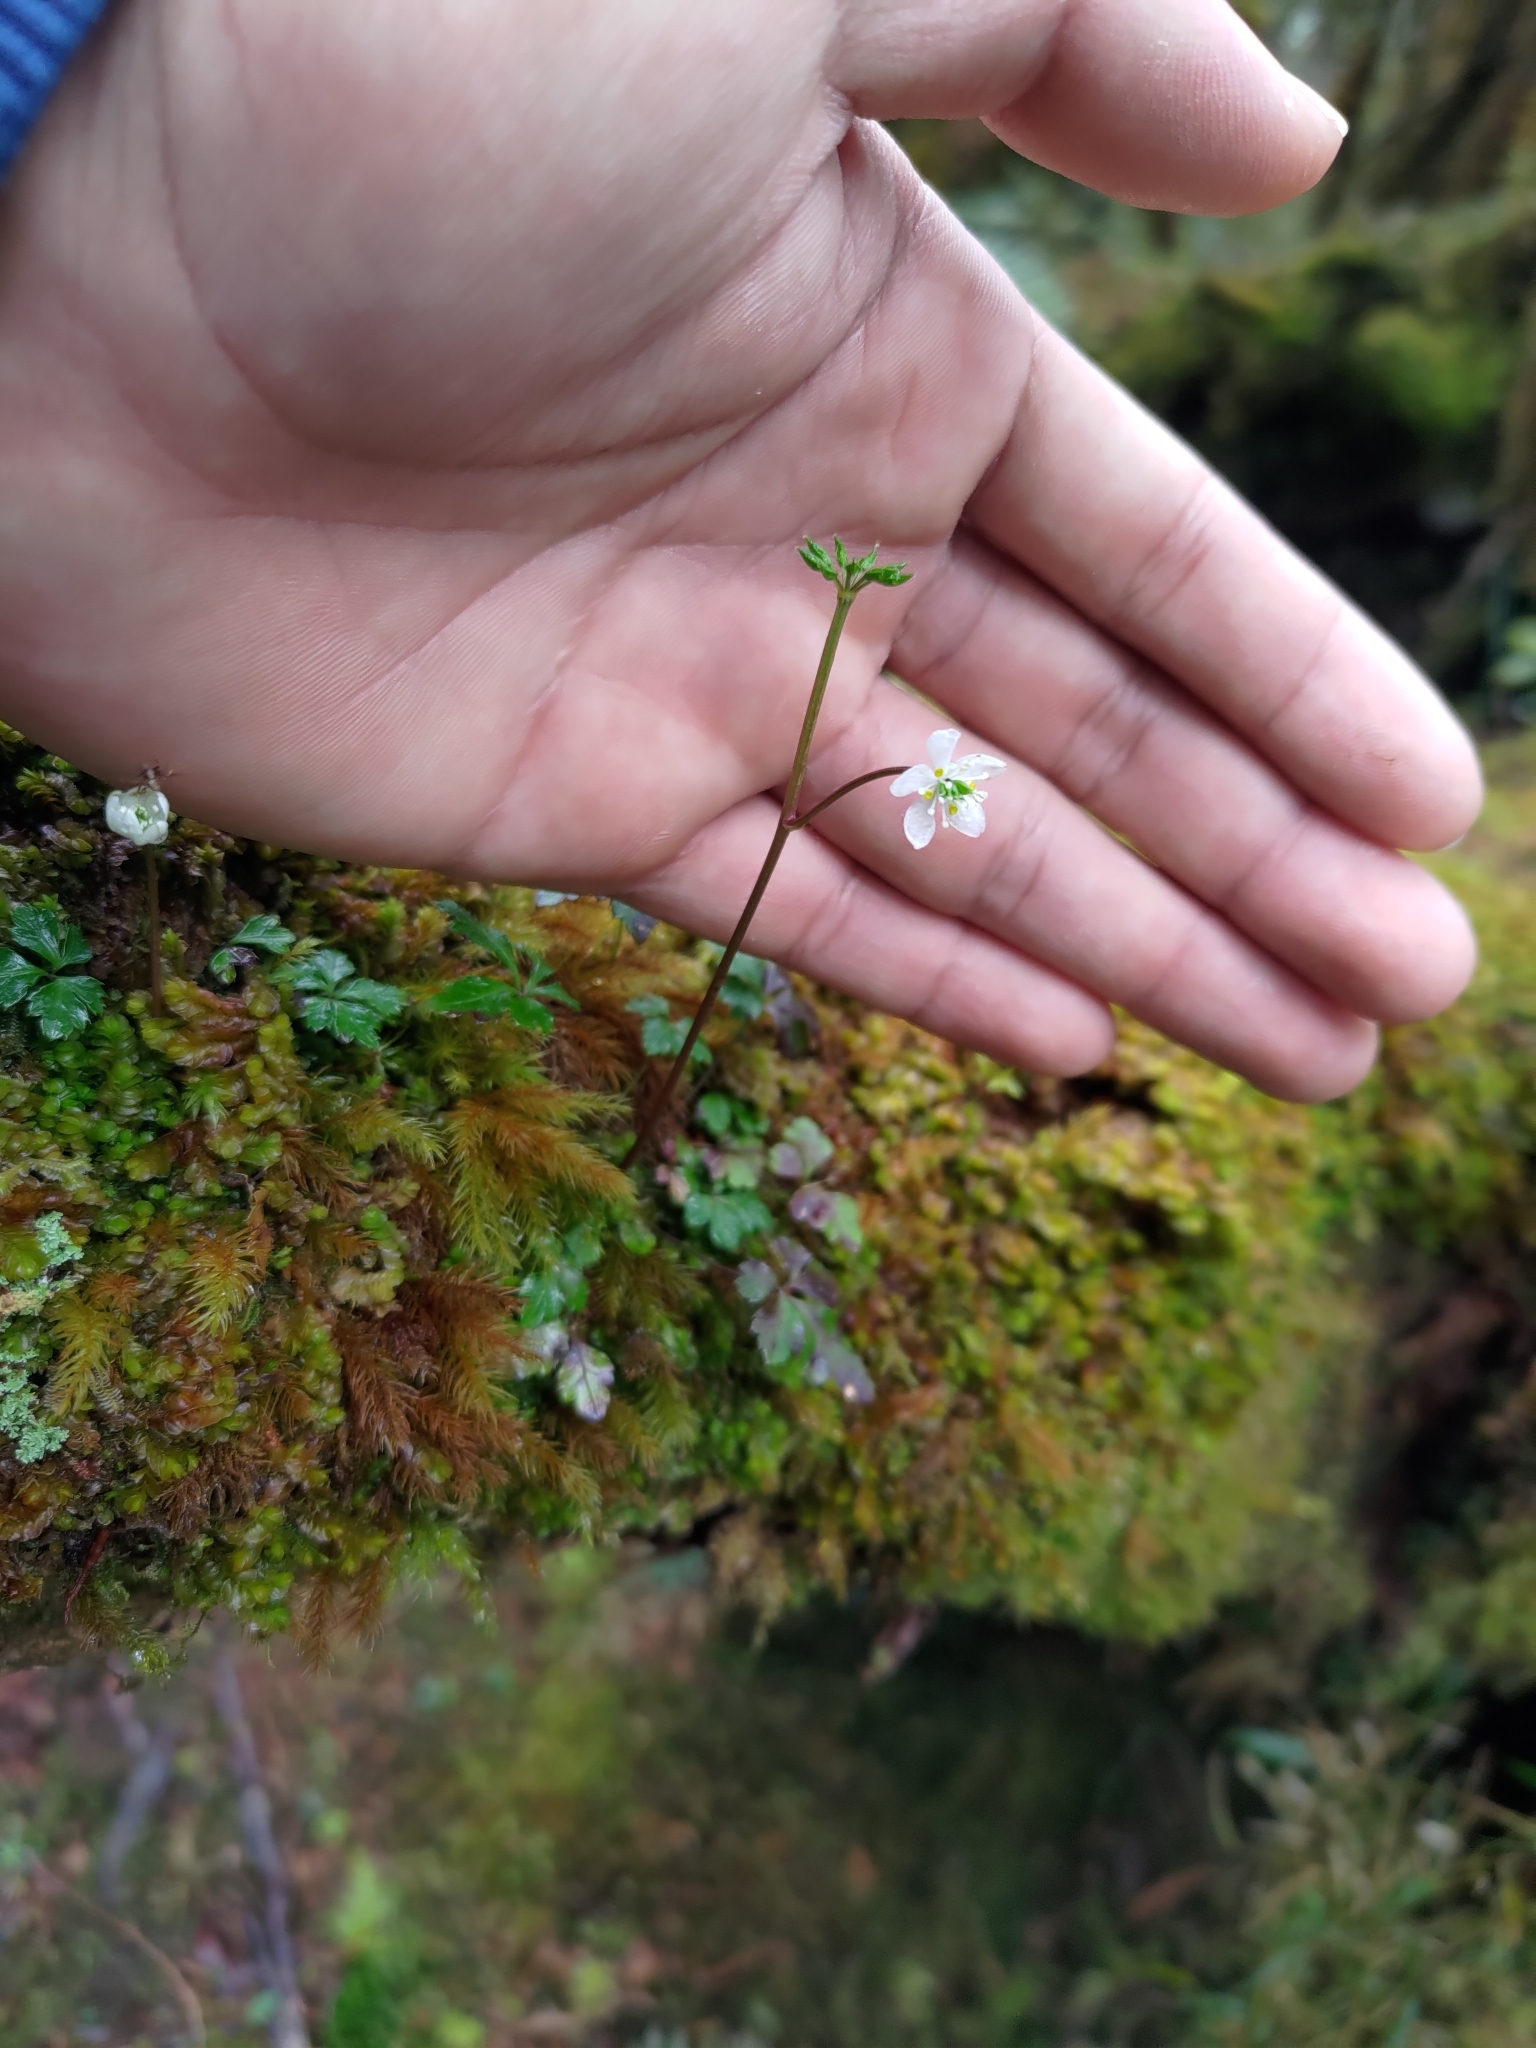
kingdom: Plantae
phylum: Tracheophyta
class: Magnoliopsida
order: Ranunculales
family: Ranunculaceae
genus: Coptis
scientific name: Coptis quinquefolia
